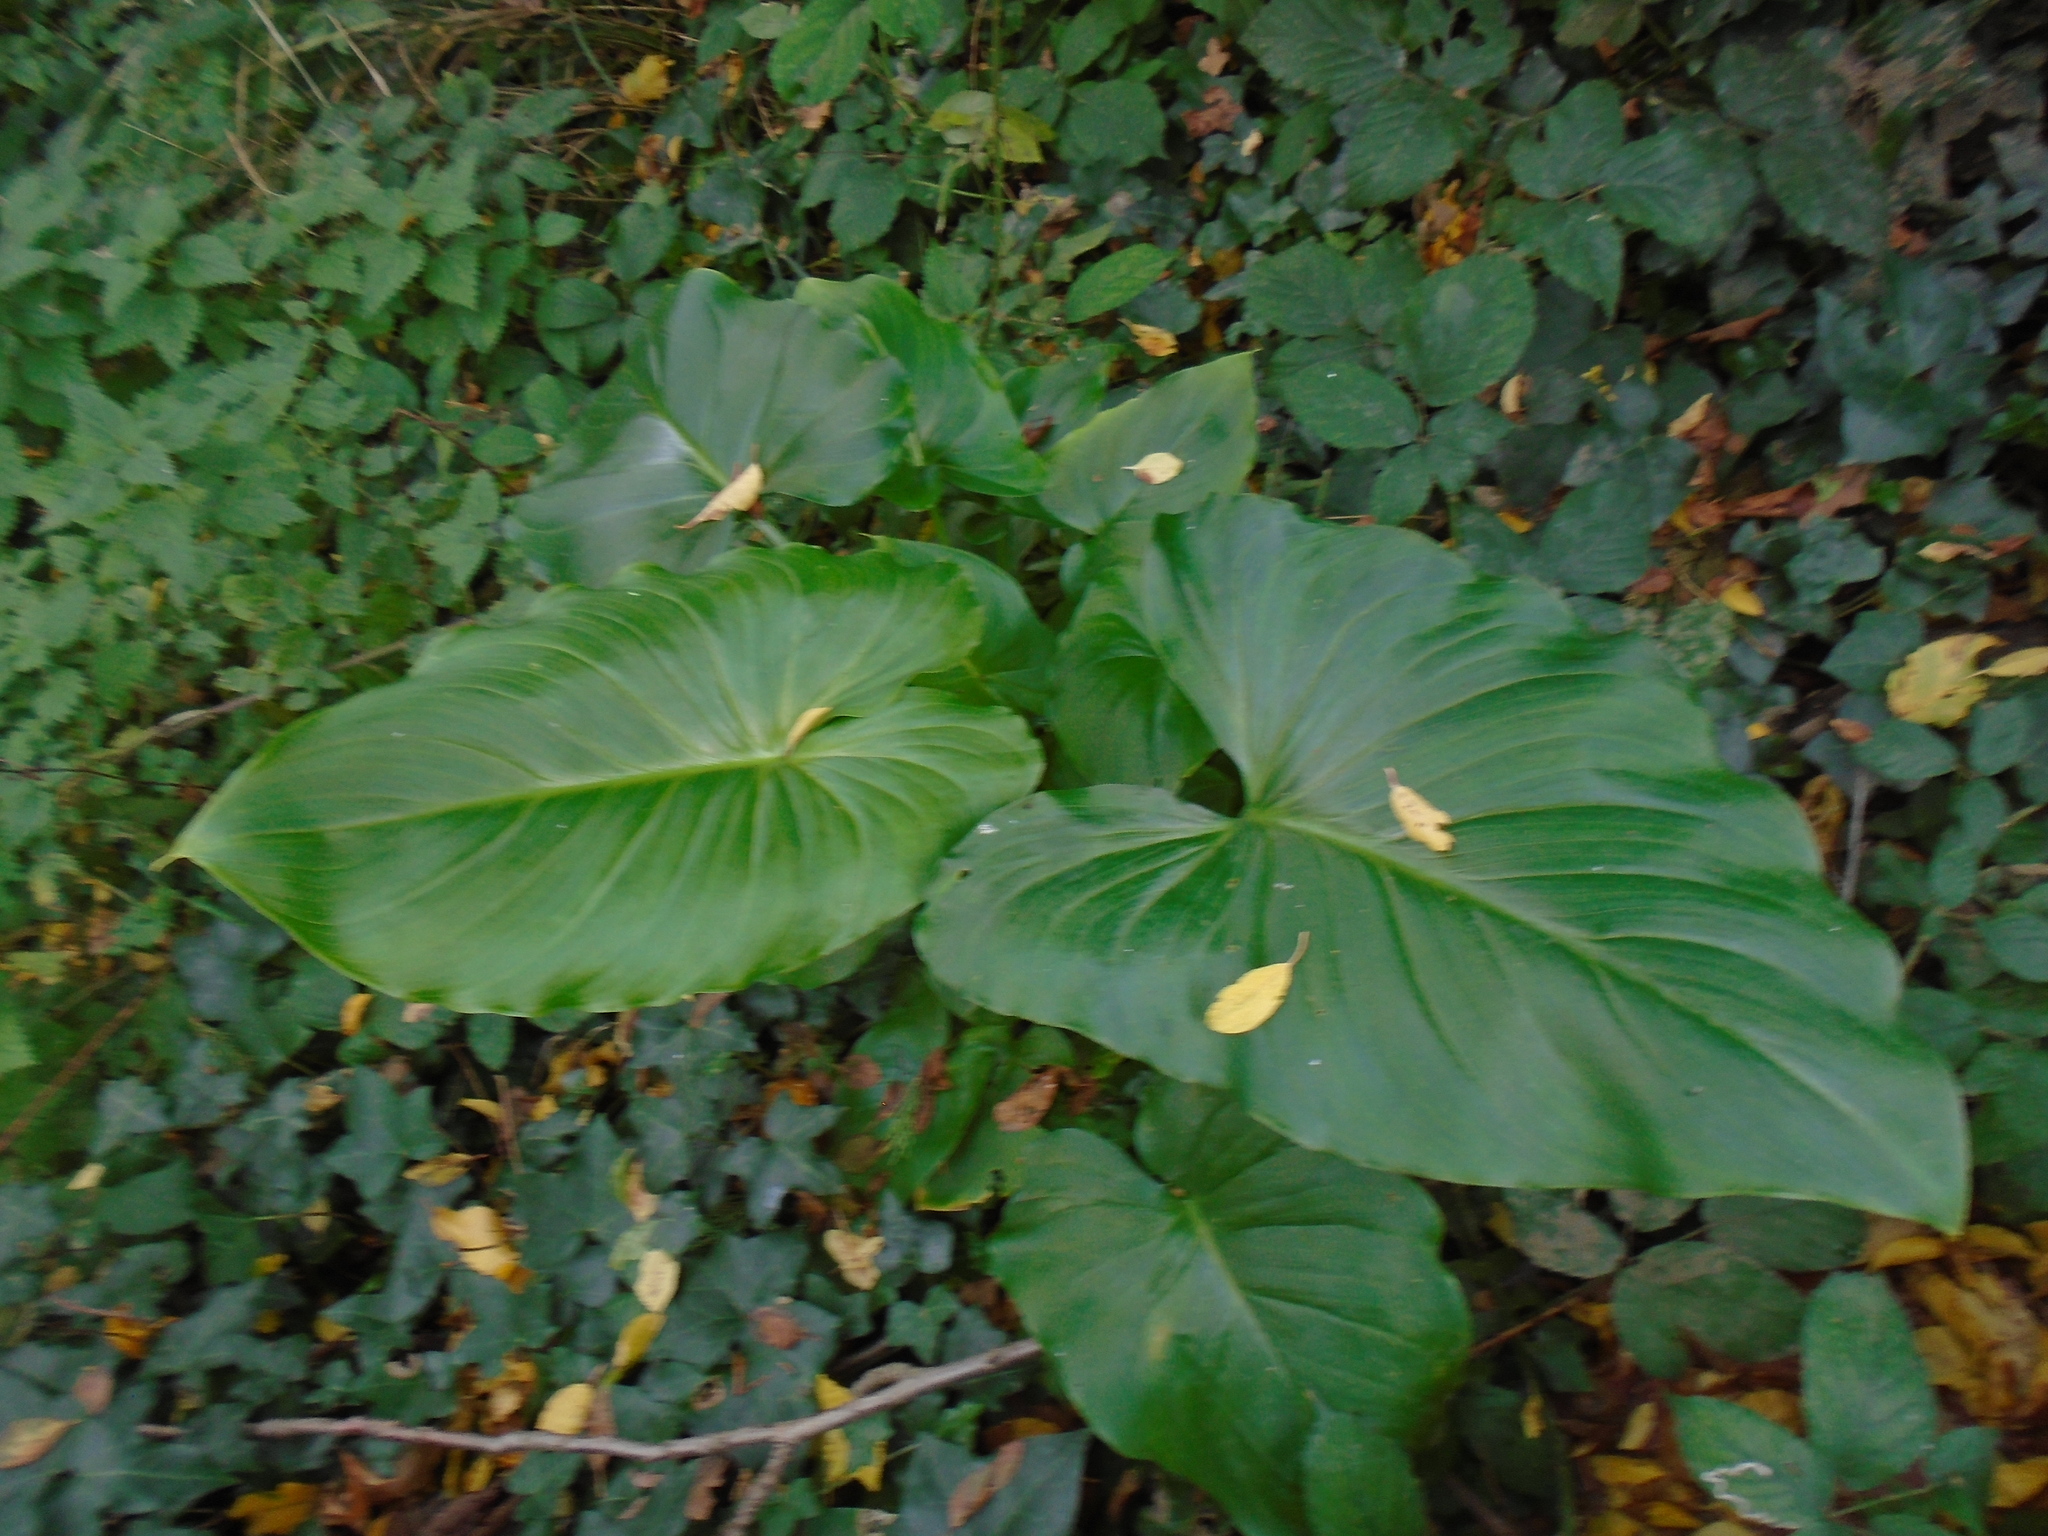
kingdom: Plantae
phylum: Tracheophyta
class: Liliopsida
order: Alismatales
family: Araceae
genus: Zantedeschia
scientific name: Zantedeschia aethiopica
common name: Altar-lily
